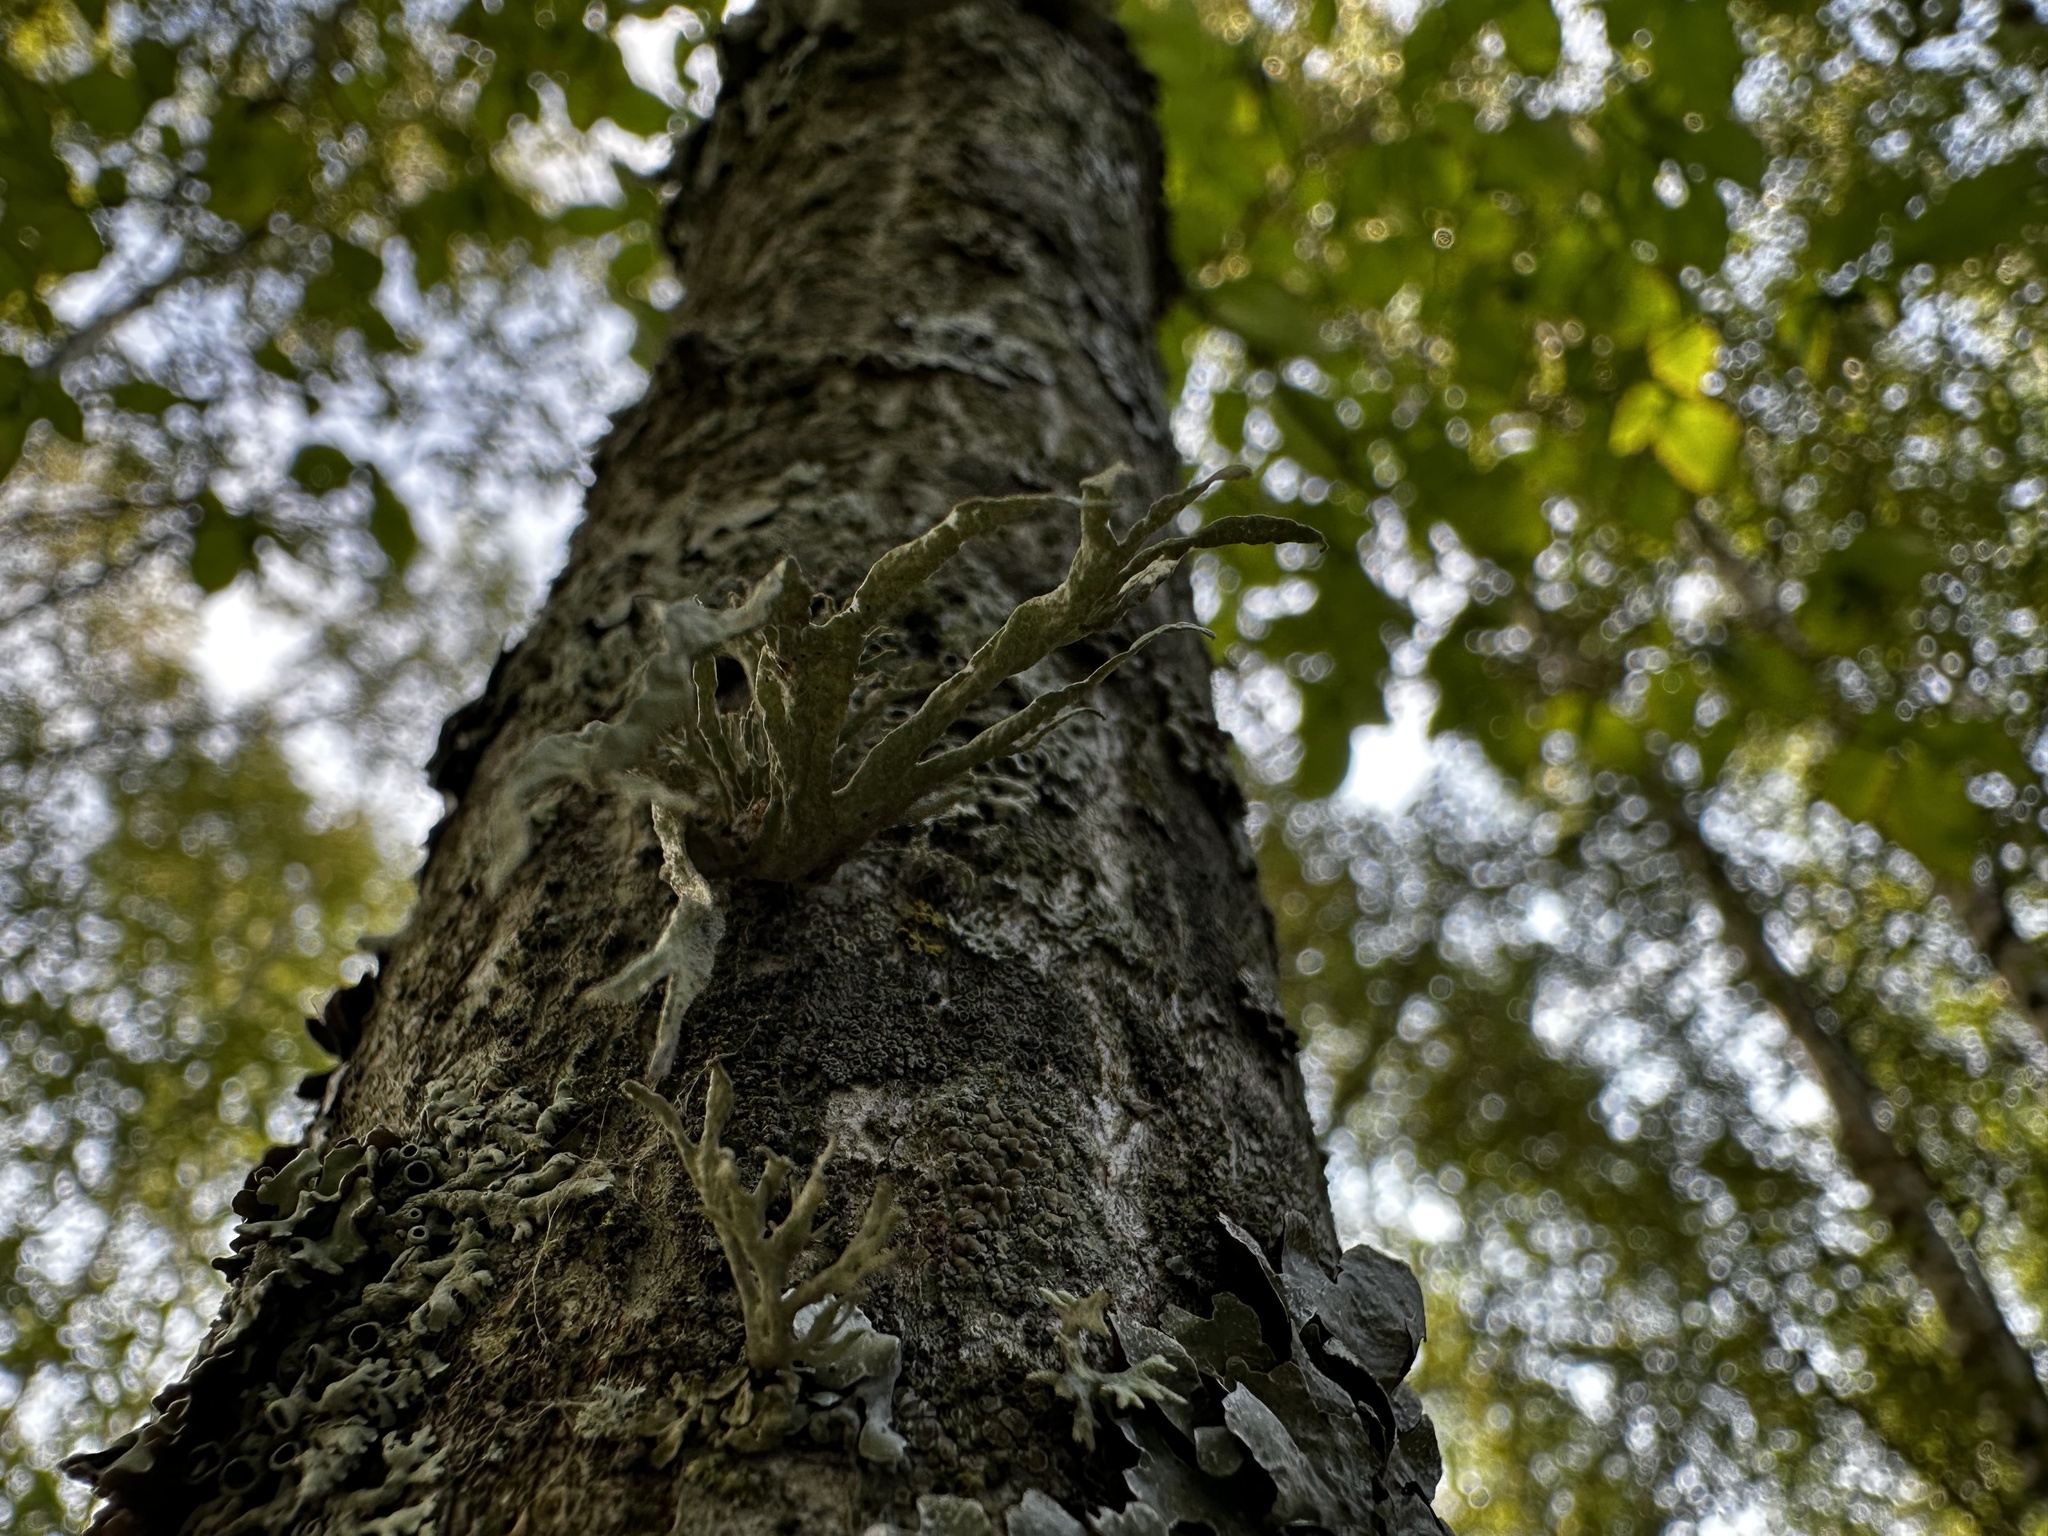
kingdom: Fungi
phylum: Ascomycota
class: Lecanoromycetes
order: Lecanorales
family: Ramalinaceae
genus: Ramalina
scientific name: Ramalina fraxinea
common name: Cartilage lichen
